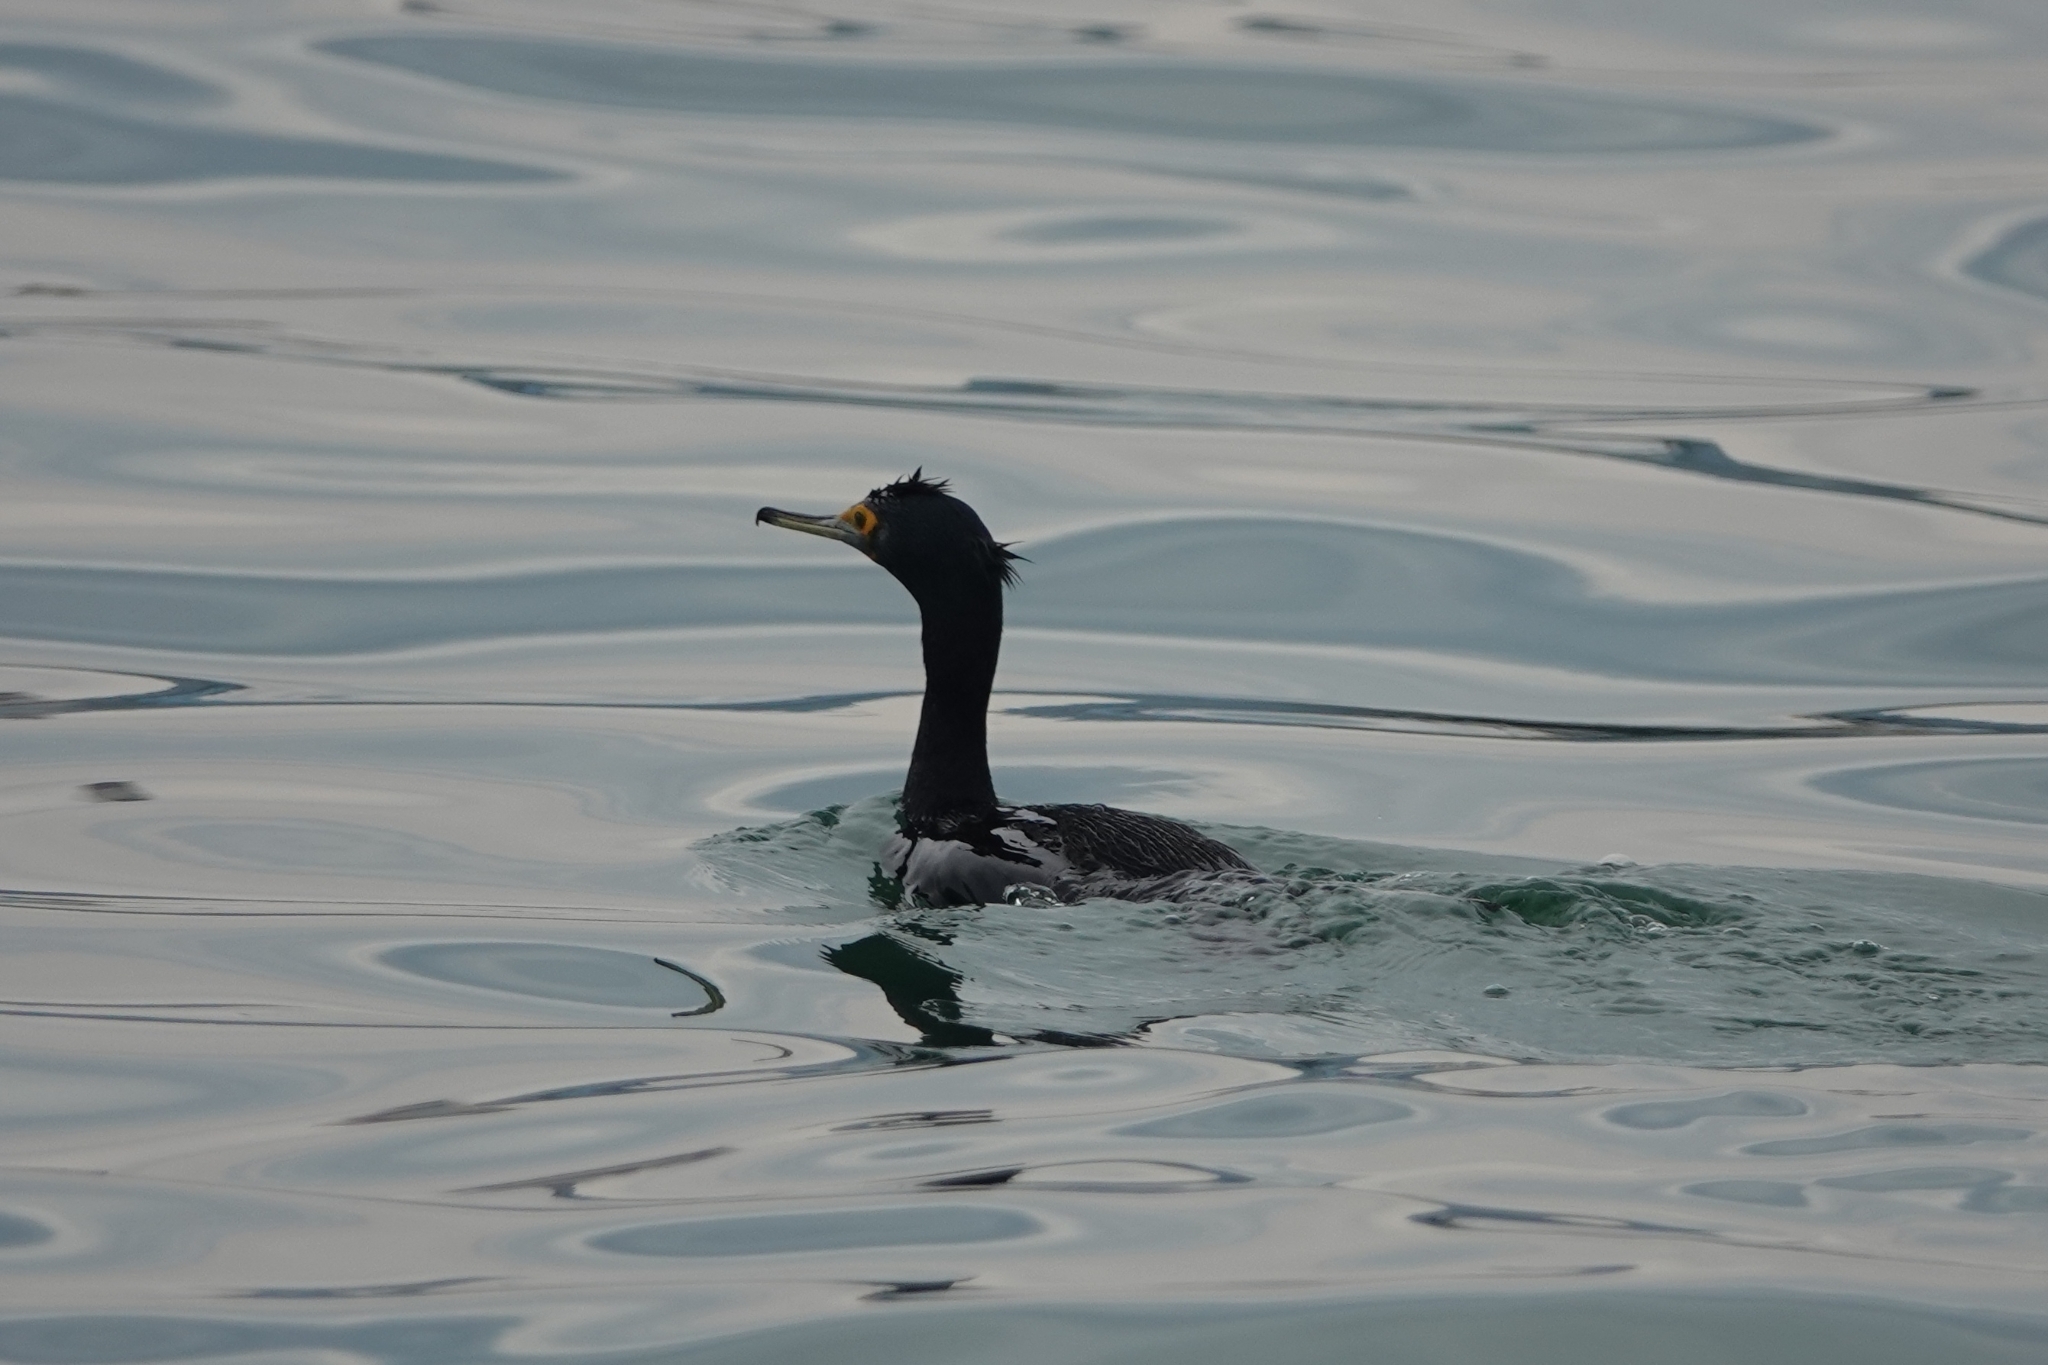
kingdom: Animalia
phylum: Chordata
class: Aves
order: Suliformes
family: Phalacrocoracidae
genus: Phalacrocorax
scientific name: Phalacrocorax urile
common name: Red-faced cormorant
